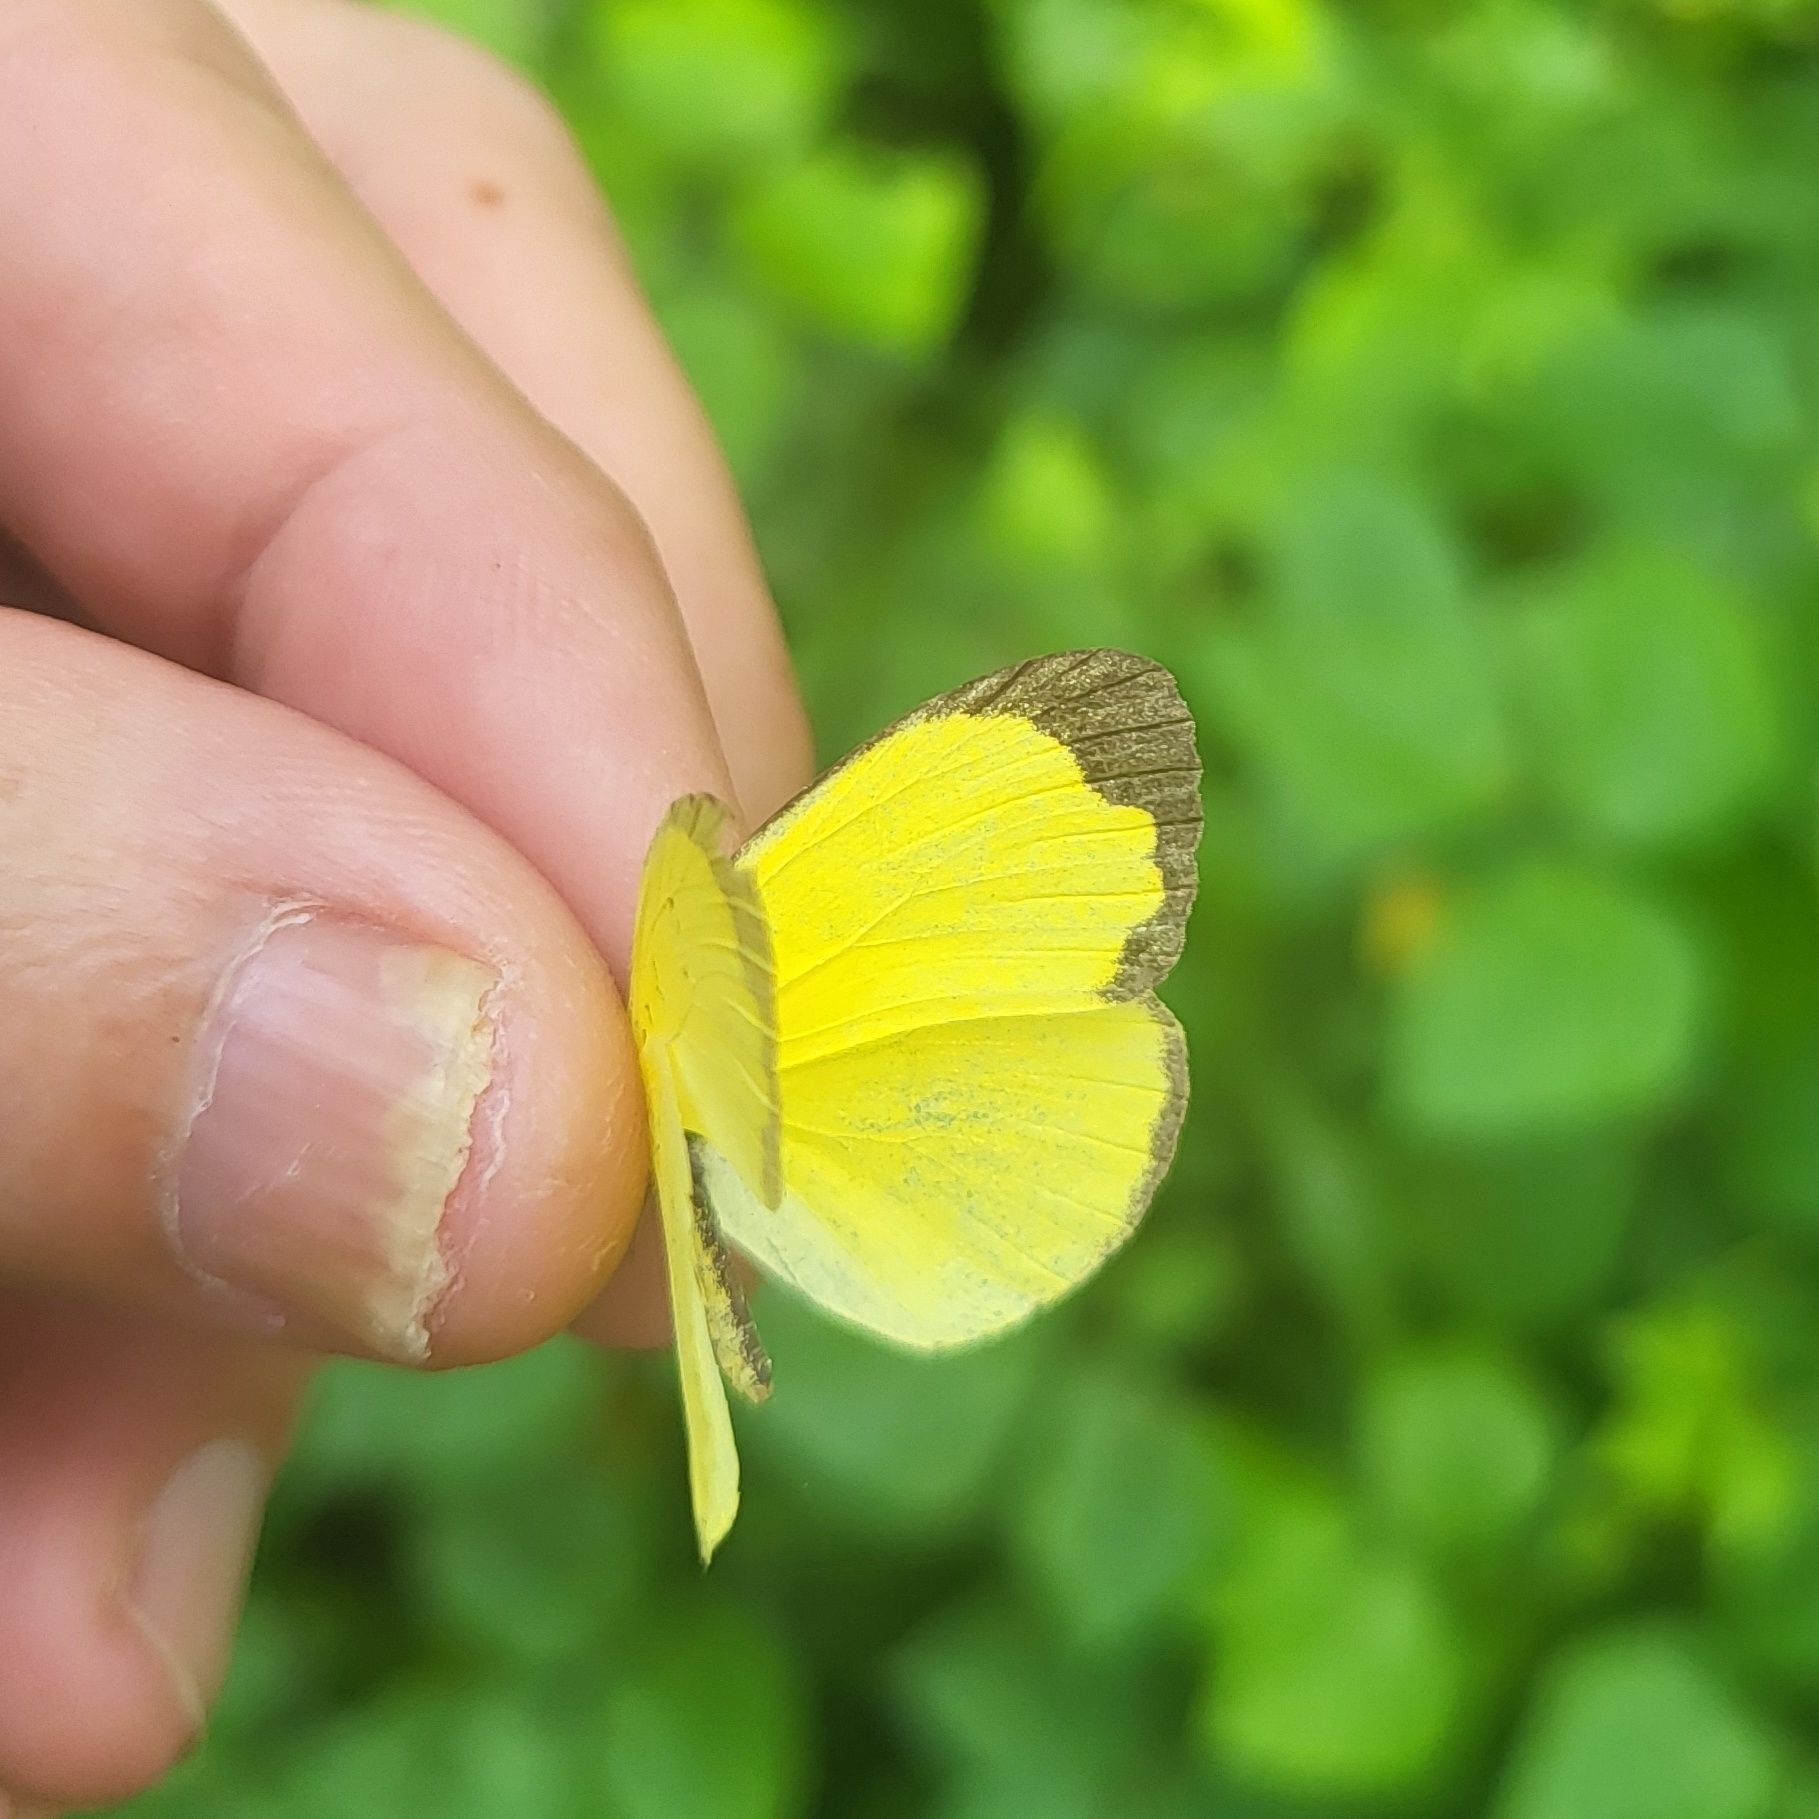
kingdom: Animalia
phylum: Arthropoda
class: Insecta
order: Lepidoptera
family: Pieridae
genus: Eurema
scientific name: Eurema blanda
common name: Three-spot grass yellow
